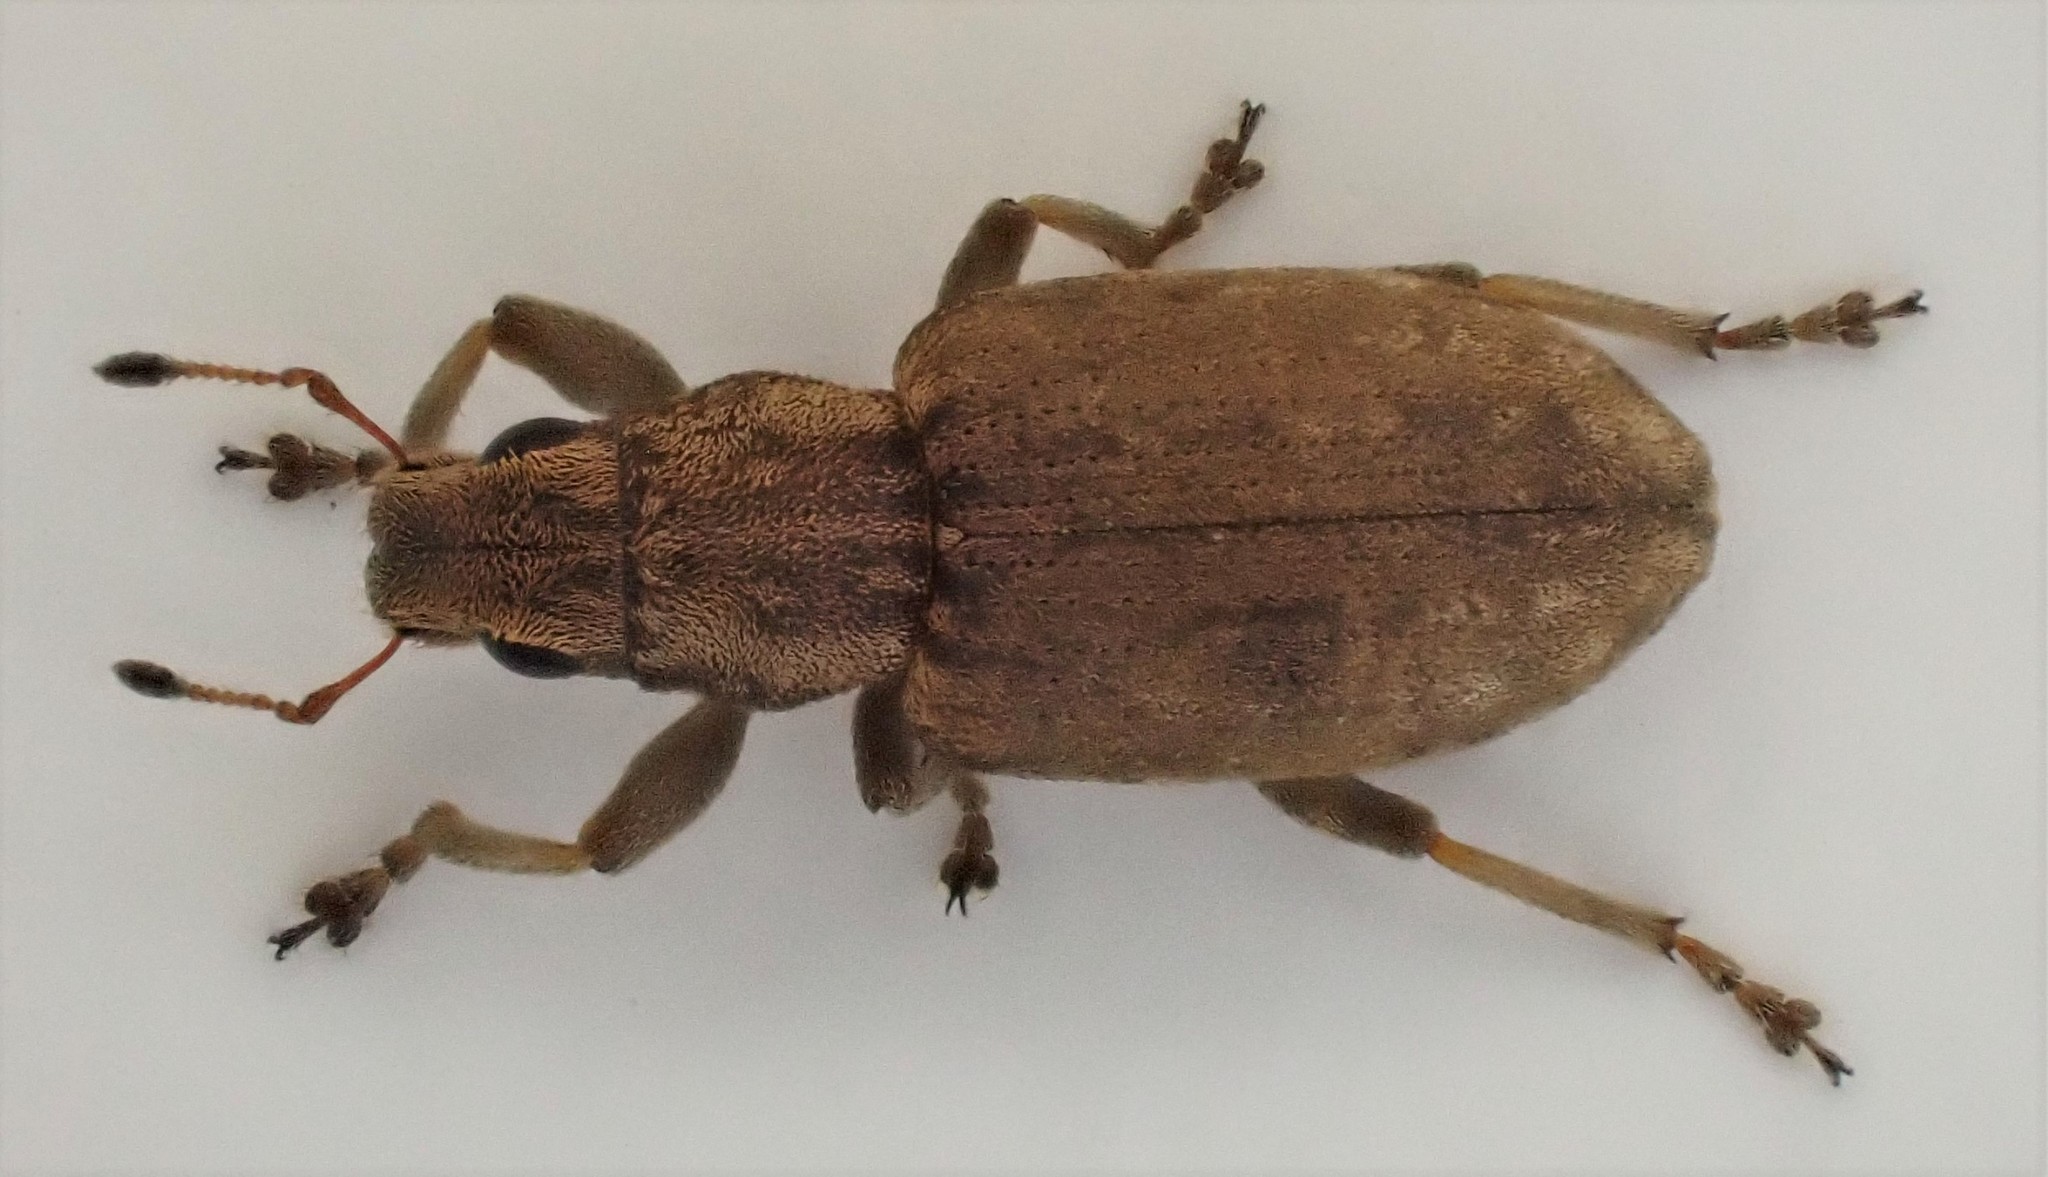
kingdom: Animalia
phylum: Arthropoda
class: Insecta
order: Coleoptera
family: Curculionidae
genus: Sitona
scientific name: Sitona obsoletus
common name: Weevil
